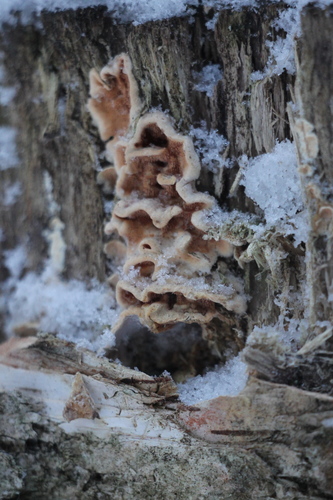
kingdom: Fungi
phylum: Basidiomycota
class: Agaricomycetes
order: Polyporales
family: Steccherinaceae
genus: Steccherinum
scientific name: Steccherinum ochraceum
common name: Ochre spreading tooth
